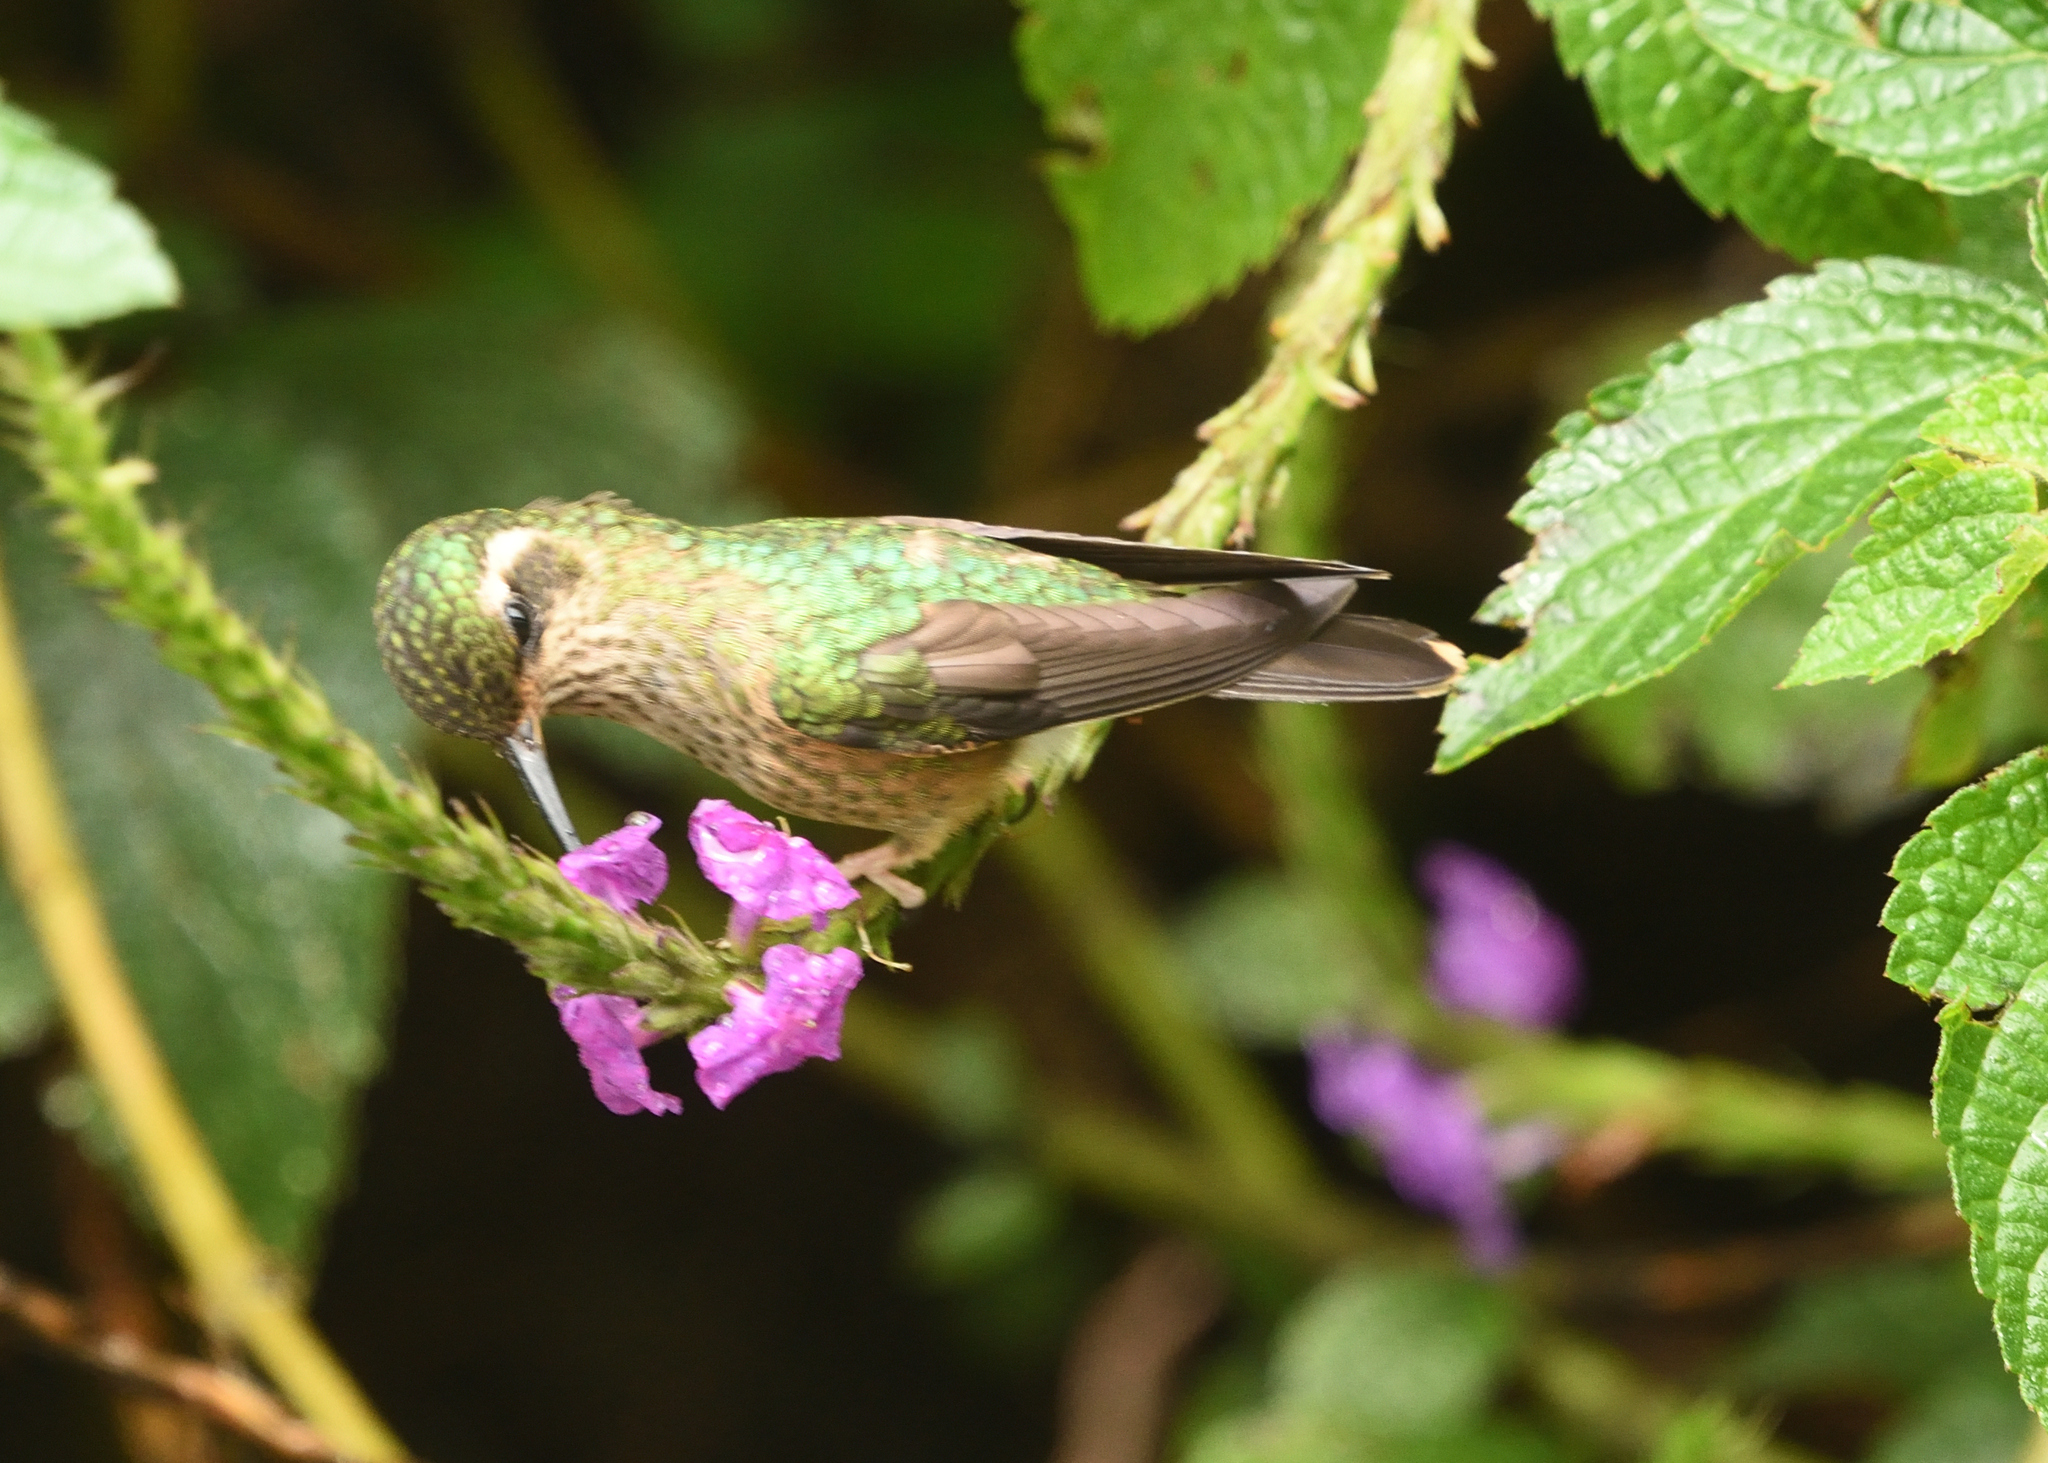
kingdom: Animalia
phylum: Chordata
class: Aves
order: Apodiformes
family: Trochilidae
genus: Adelomyia
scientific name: Adelomyia melanogenys
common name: Speckled hummingbird
